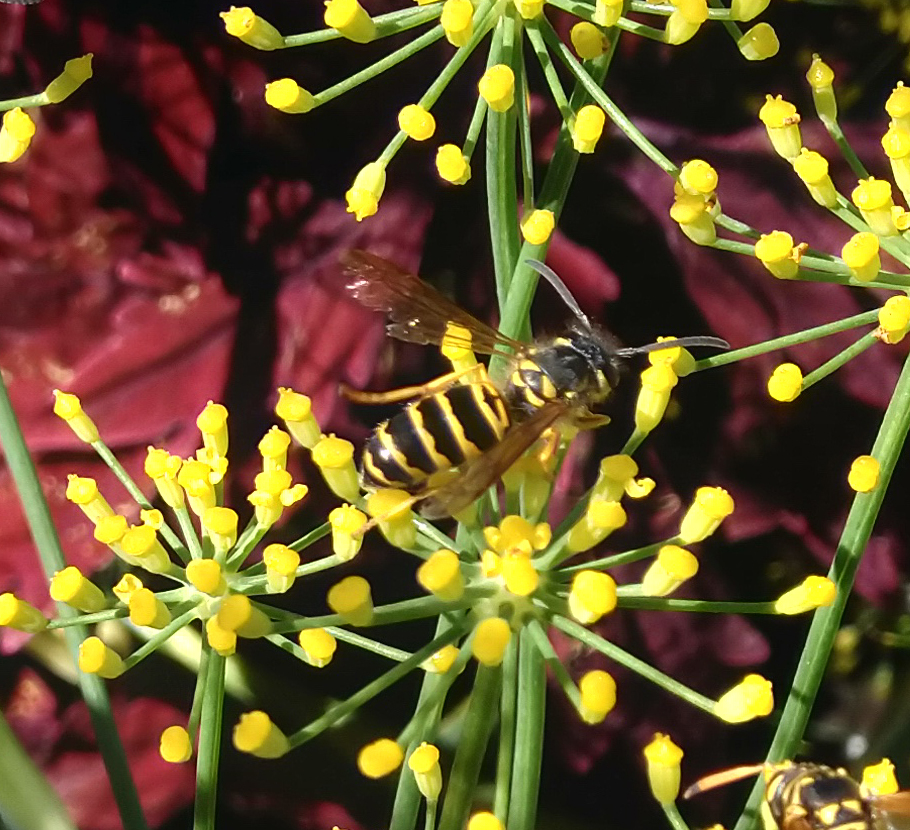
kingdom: Animalia
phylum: Arthropoda
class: Insecta
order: Hymenoptera
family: Vespidae
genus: Vespula
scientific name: Vespula maculifrons
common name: Eastern yellowjacket
